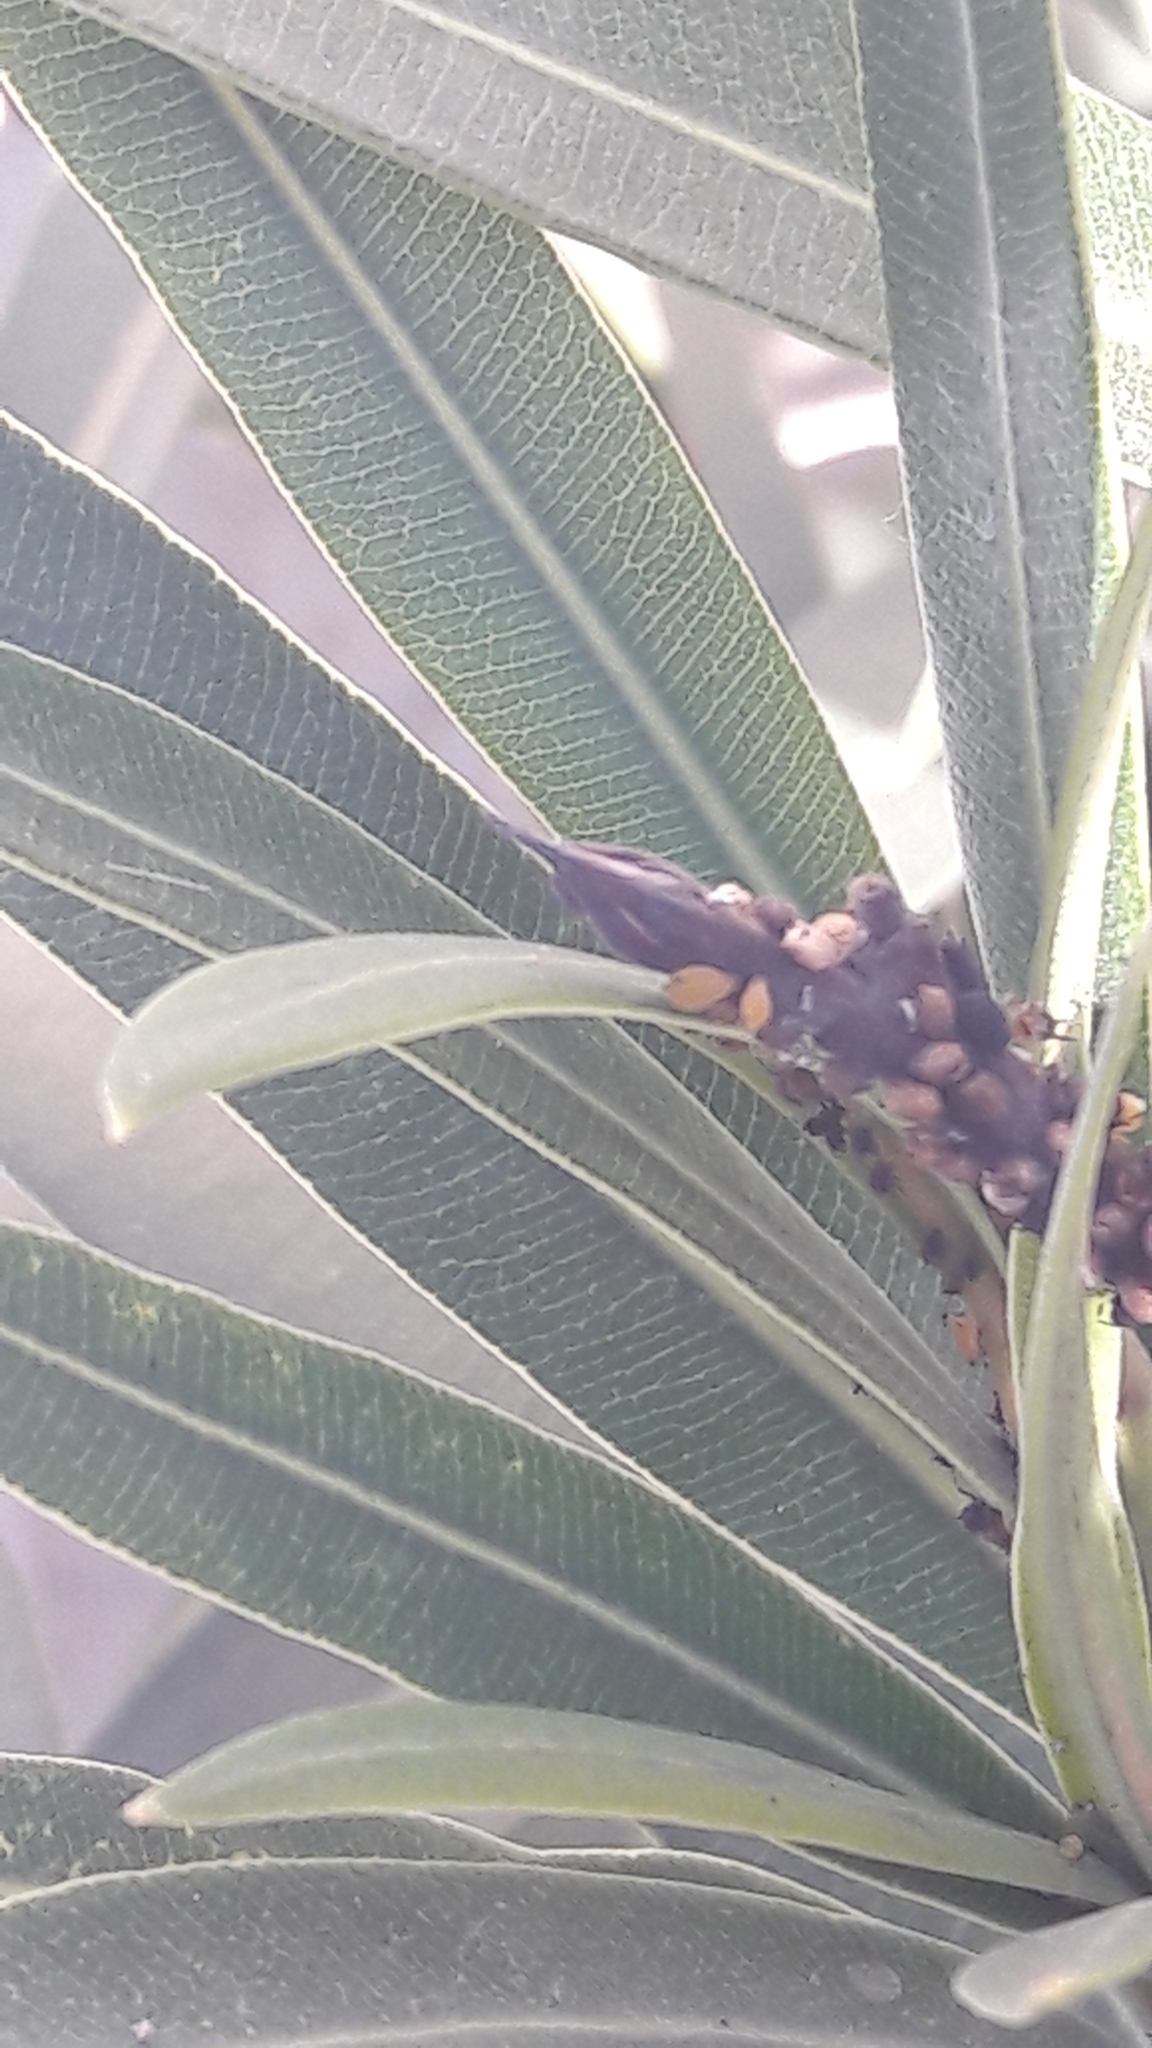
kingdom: Animalia
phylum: Arthropoda
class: Insecta
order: Hemiptera
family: Aphididae
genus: Aphis
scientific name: Aphis nerii
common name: Oleander aphid
